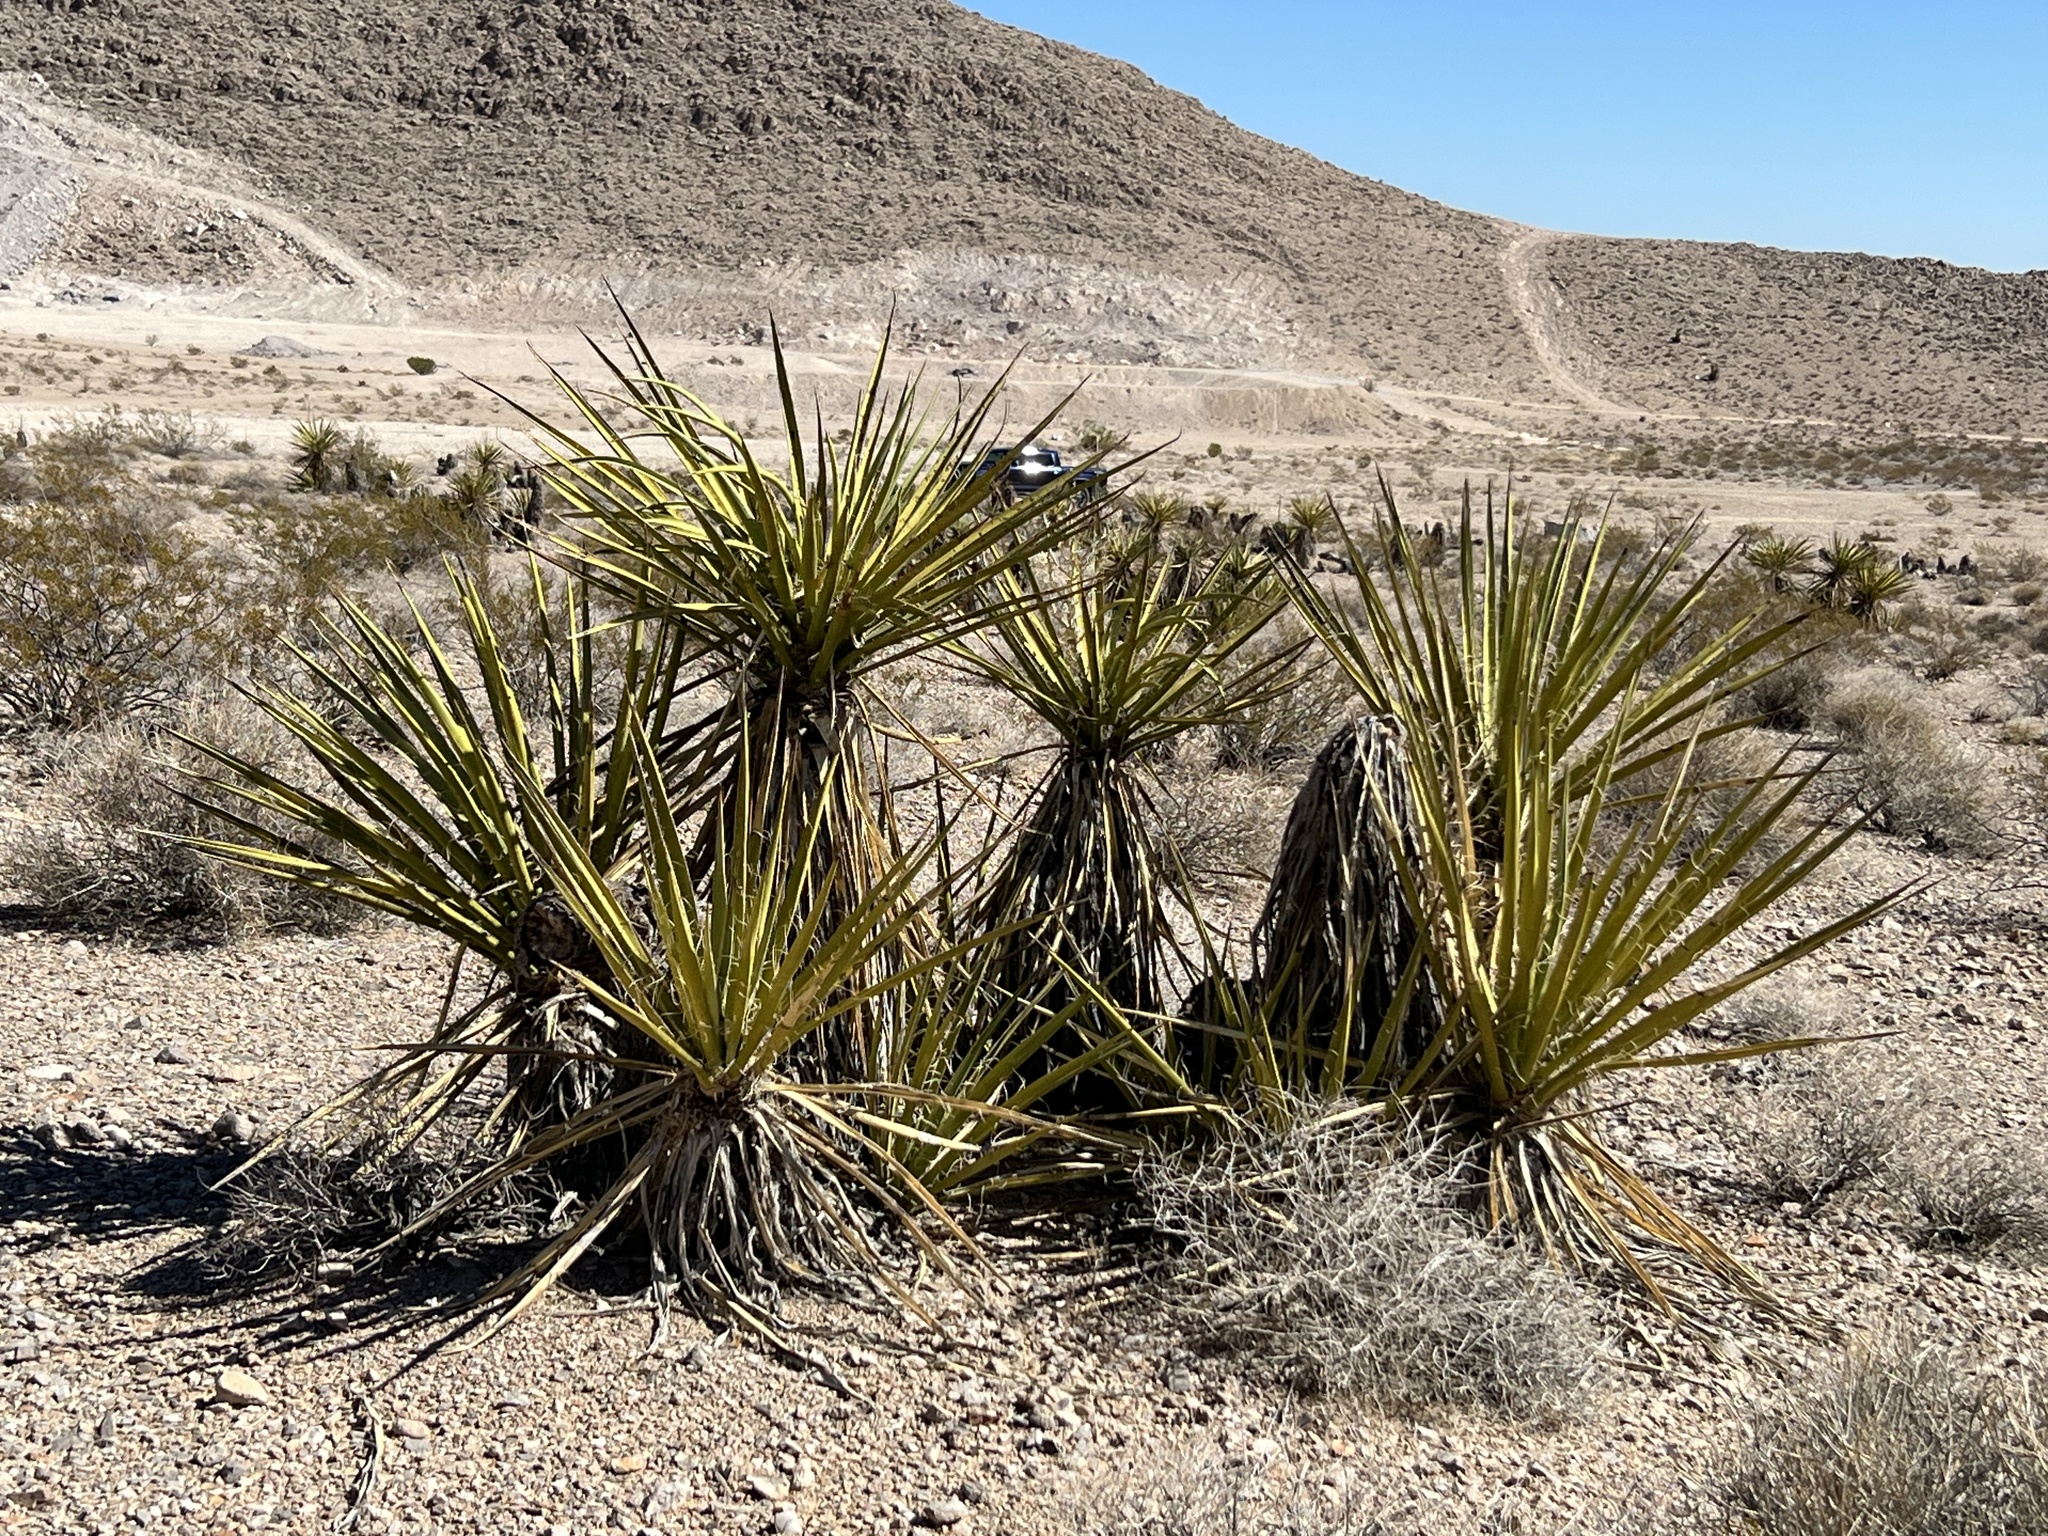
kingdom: Plantae
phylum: Tracheophyta
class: Liliopsida
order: Asparagales
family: Asparagaceae
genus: Yucca
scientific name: Yucca schidigera
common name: Mojave yucca
